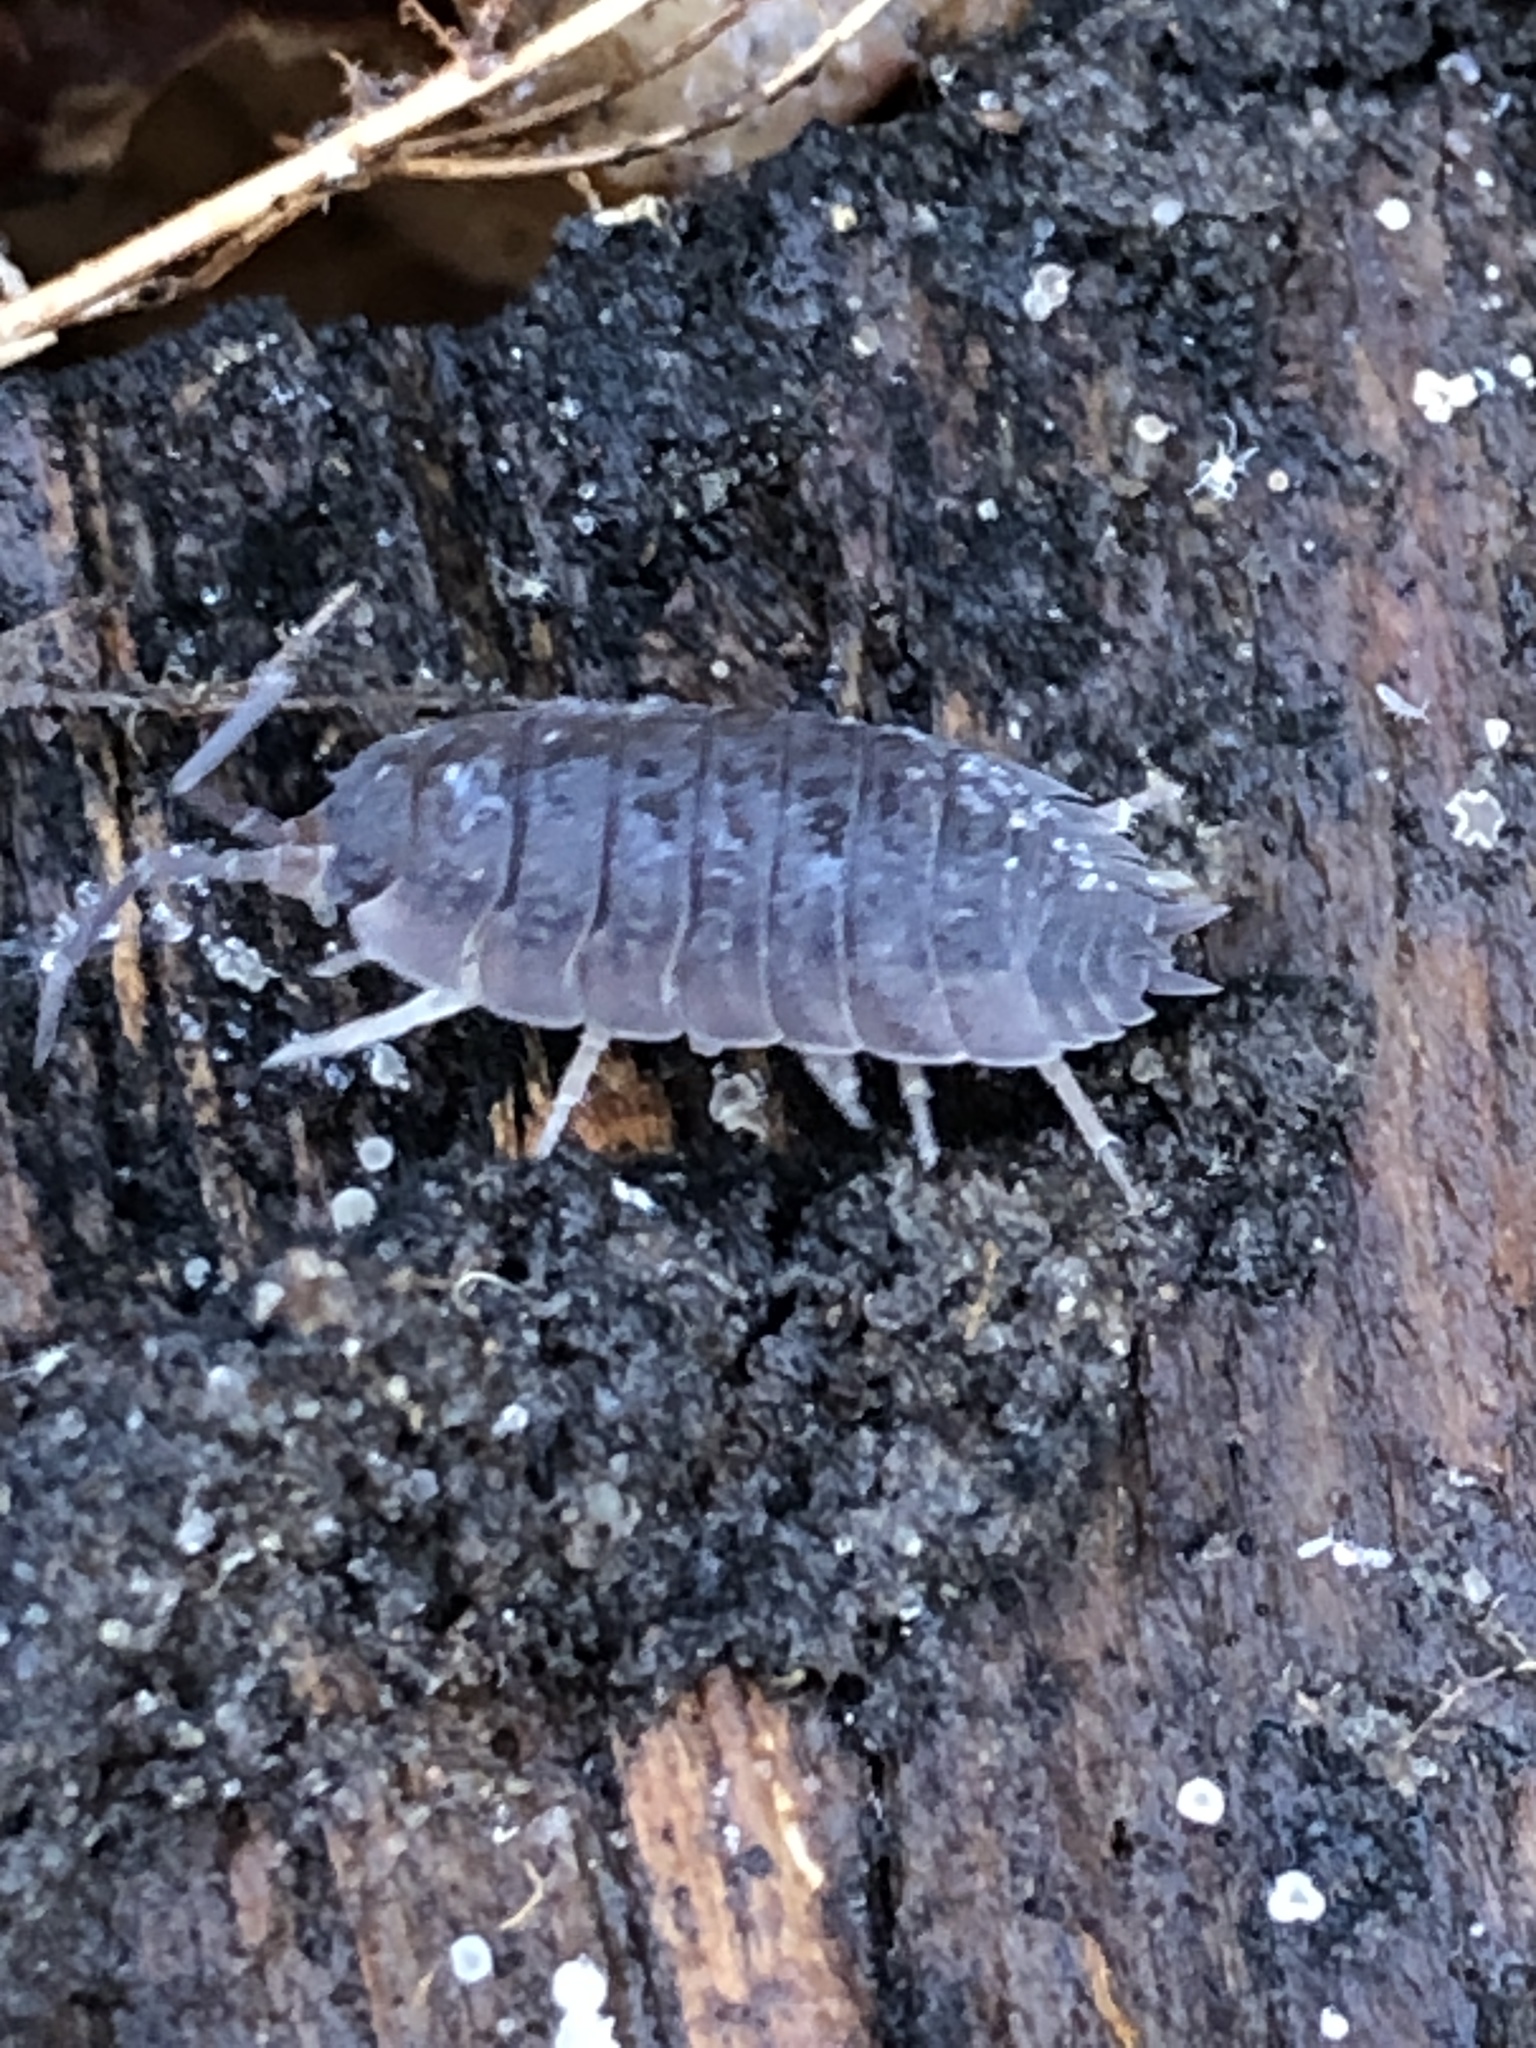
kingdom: Animalia
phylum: Arthropoda
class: Malacostraca
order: Isopoda
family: Porcellionidae
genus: Porcellio
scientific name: Porcellio scaber
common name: Common rough woodlouse
